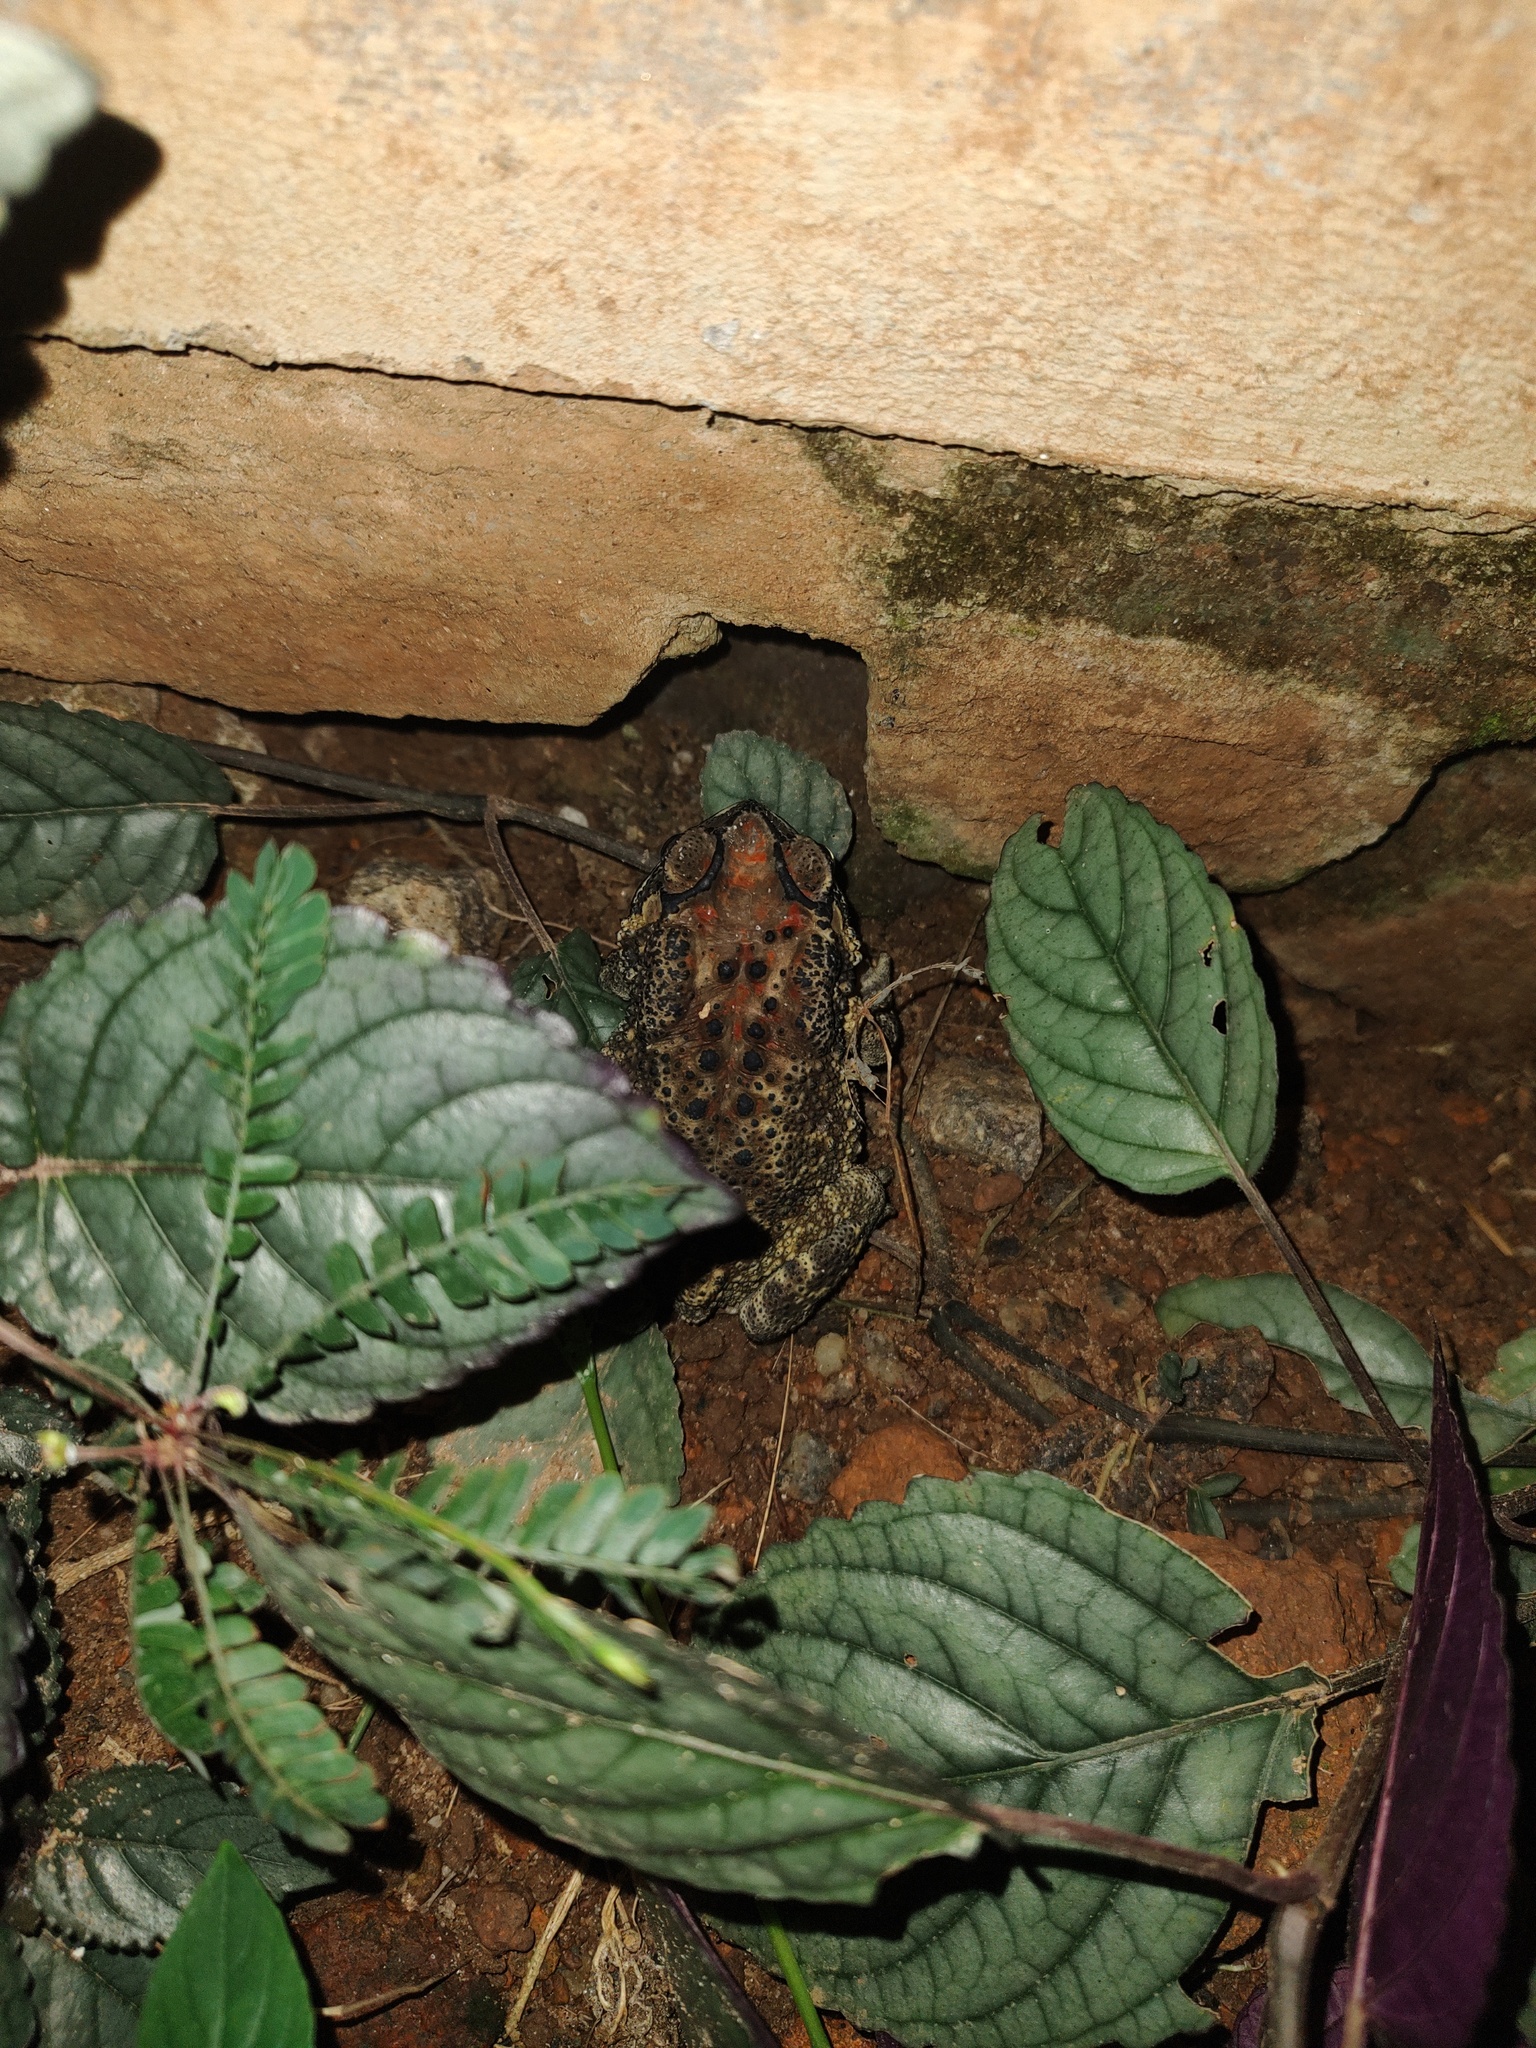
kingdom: Animalia
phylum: Chordata
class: Amphibia
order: Anura
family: Bufonidae
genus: Duttaphrynus
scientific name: Duttaphrynus melanostictus
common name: Common sunda toad
